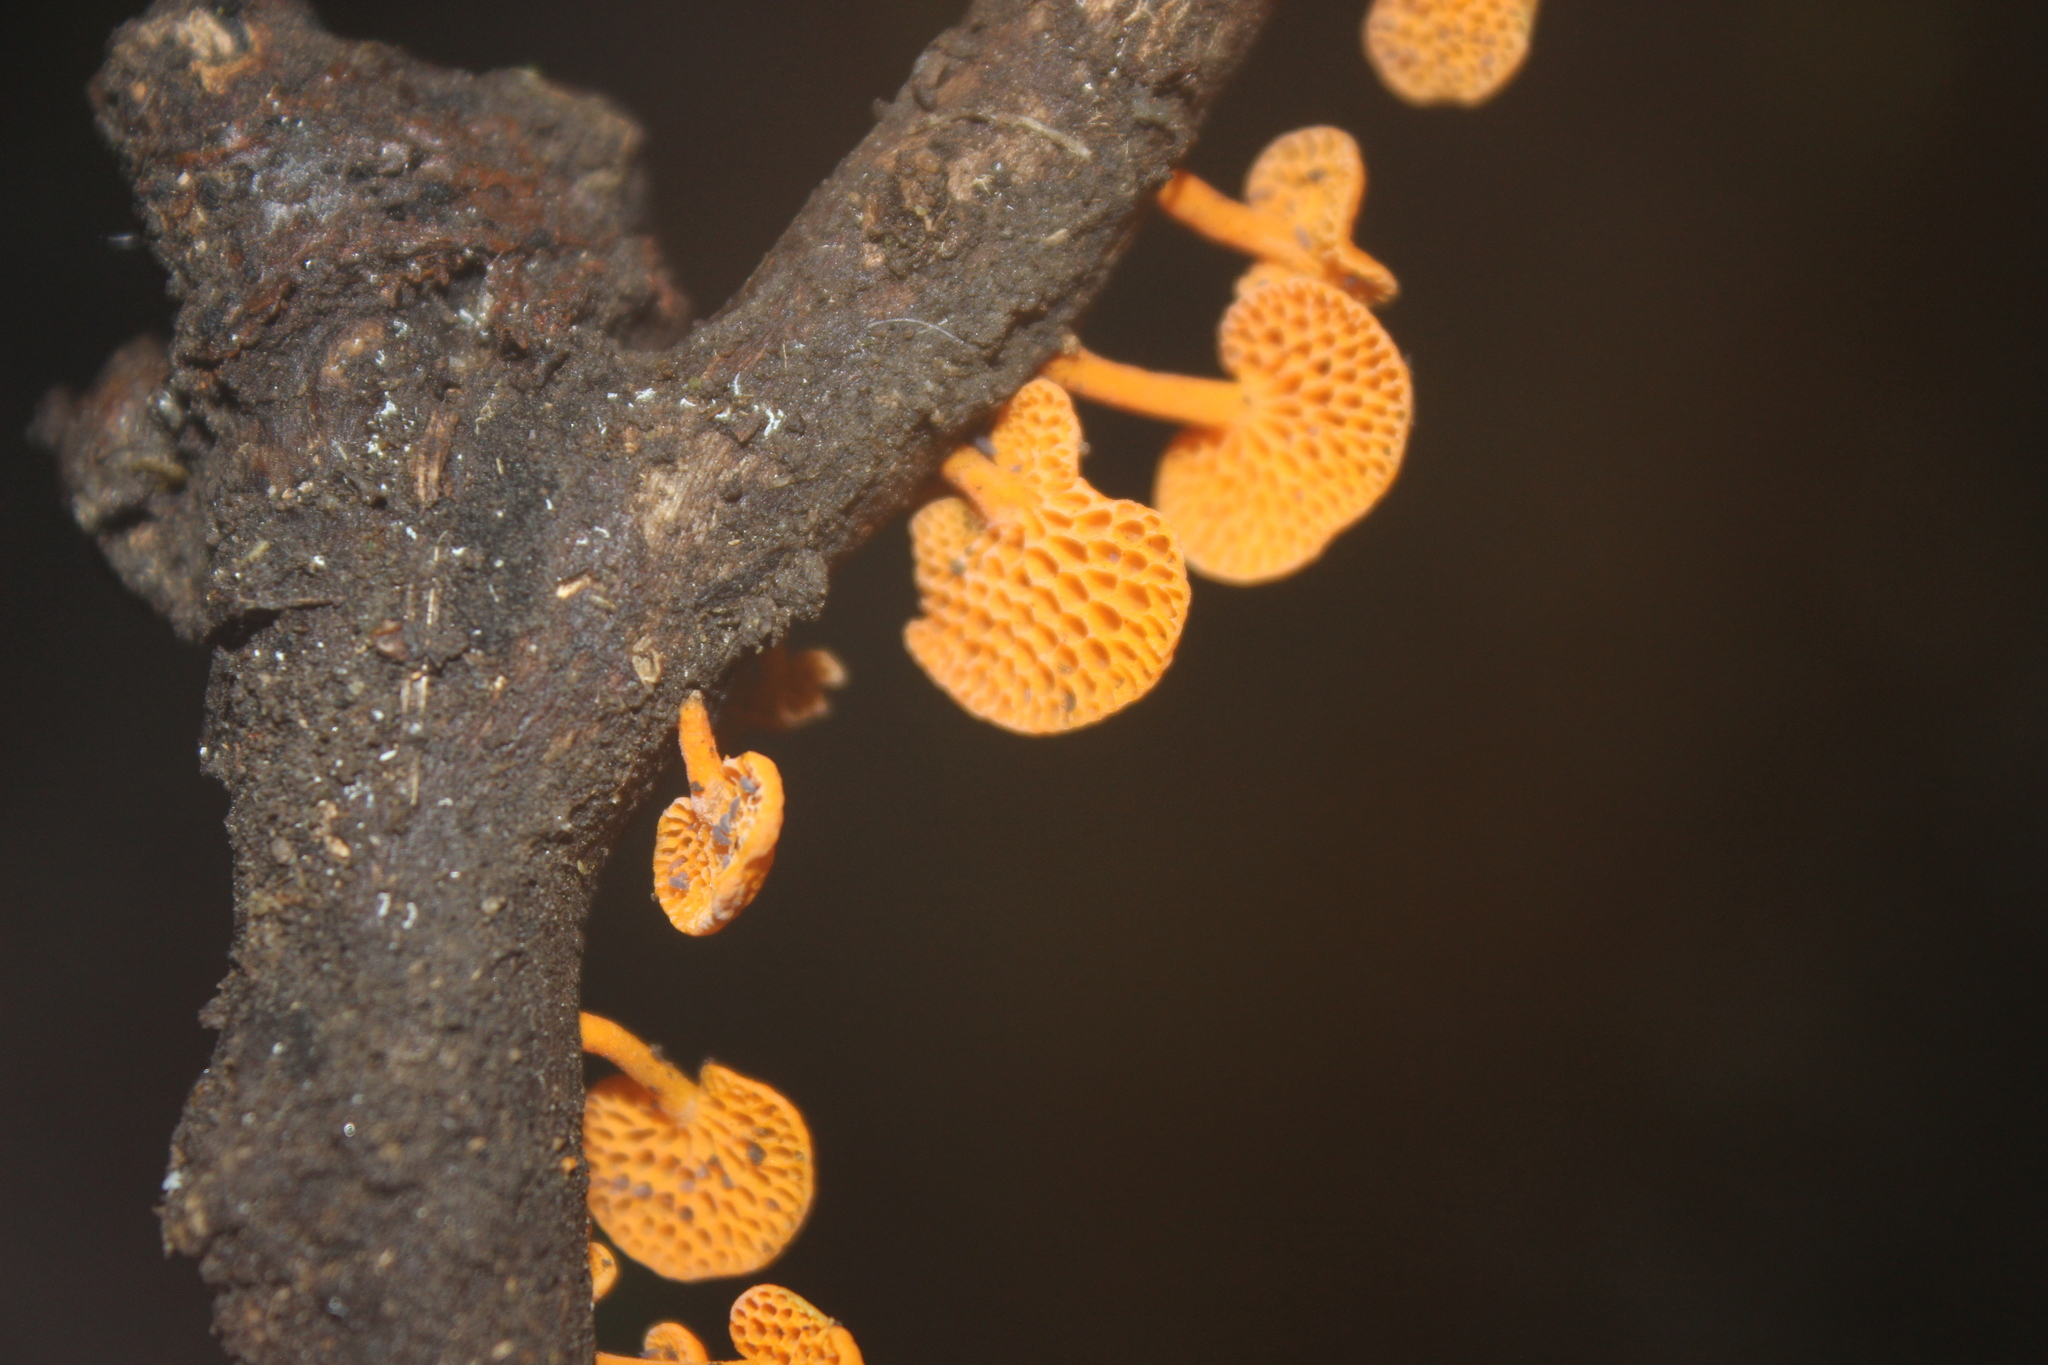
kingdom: Fungi
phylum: Basidiomycota
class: Agaricomycetes
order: Agaricales
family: Mycenaceae
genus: Favolaschia
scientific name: Favolaschia claudopus
